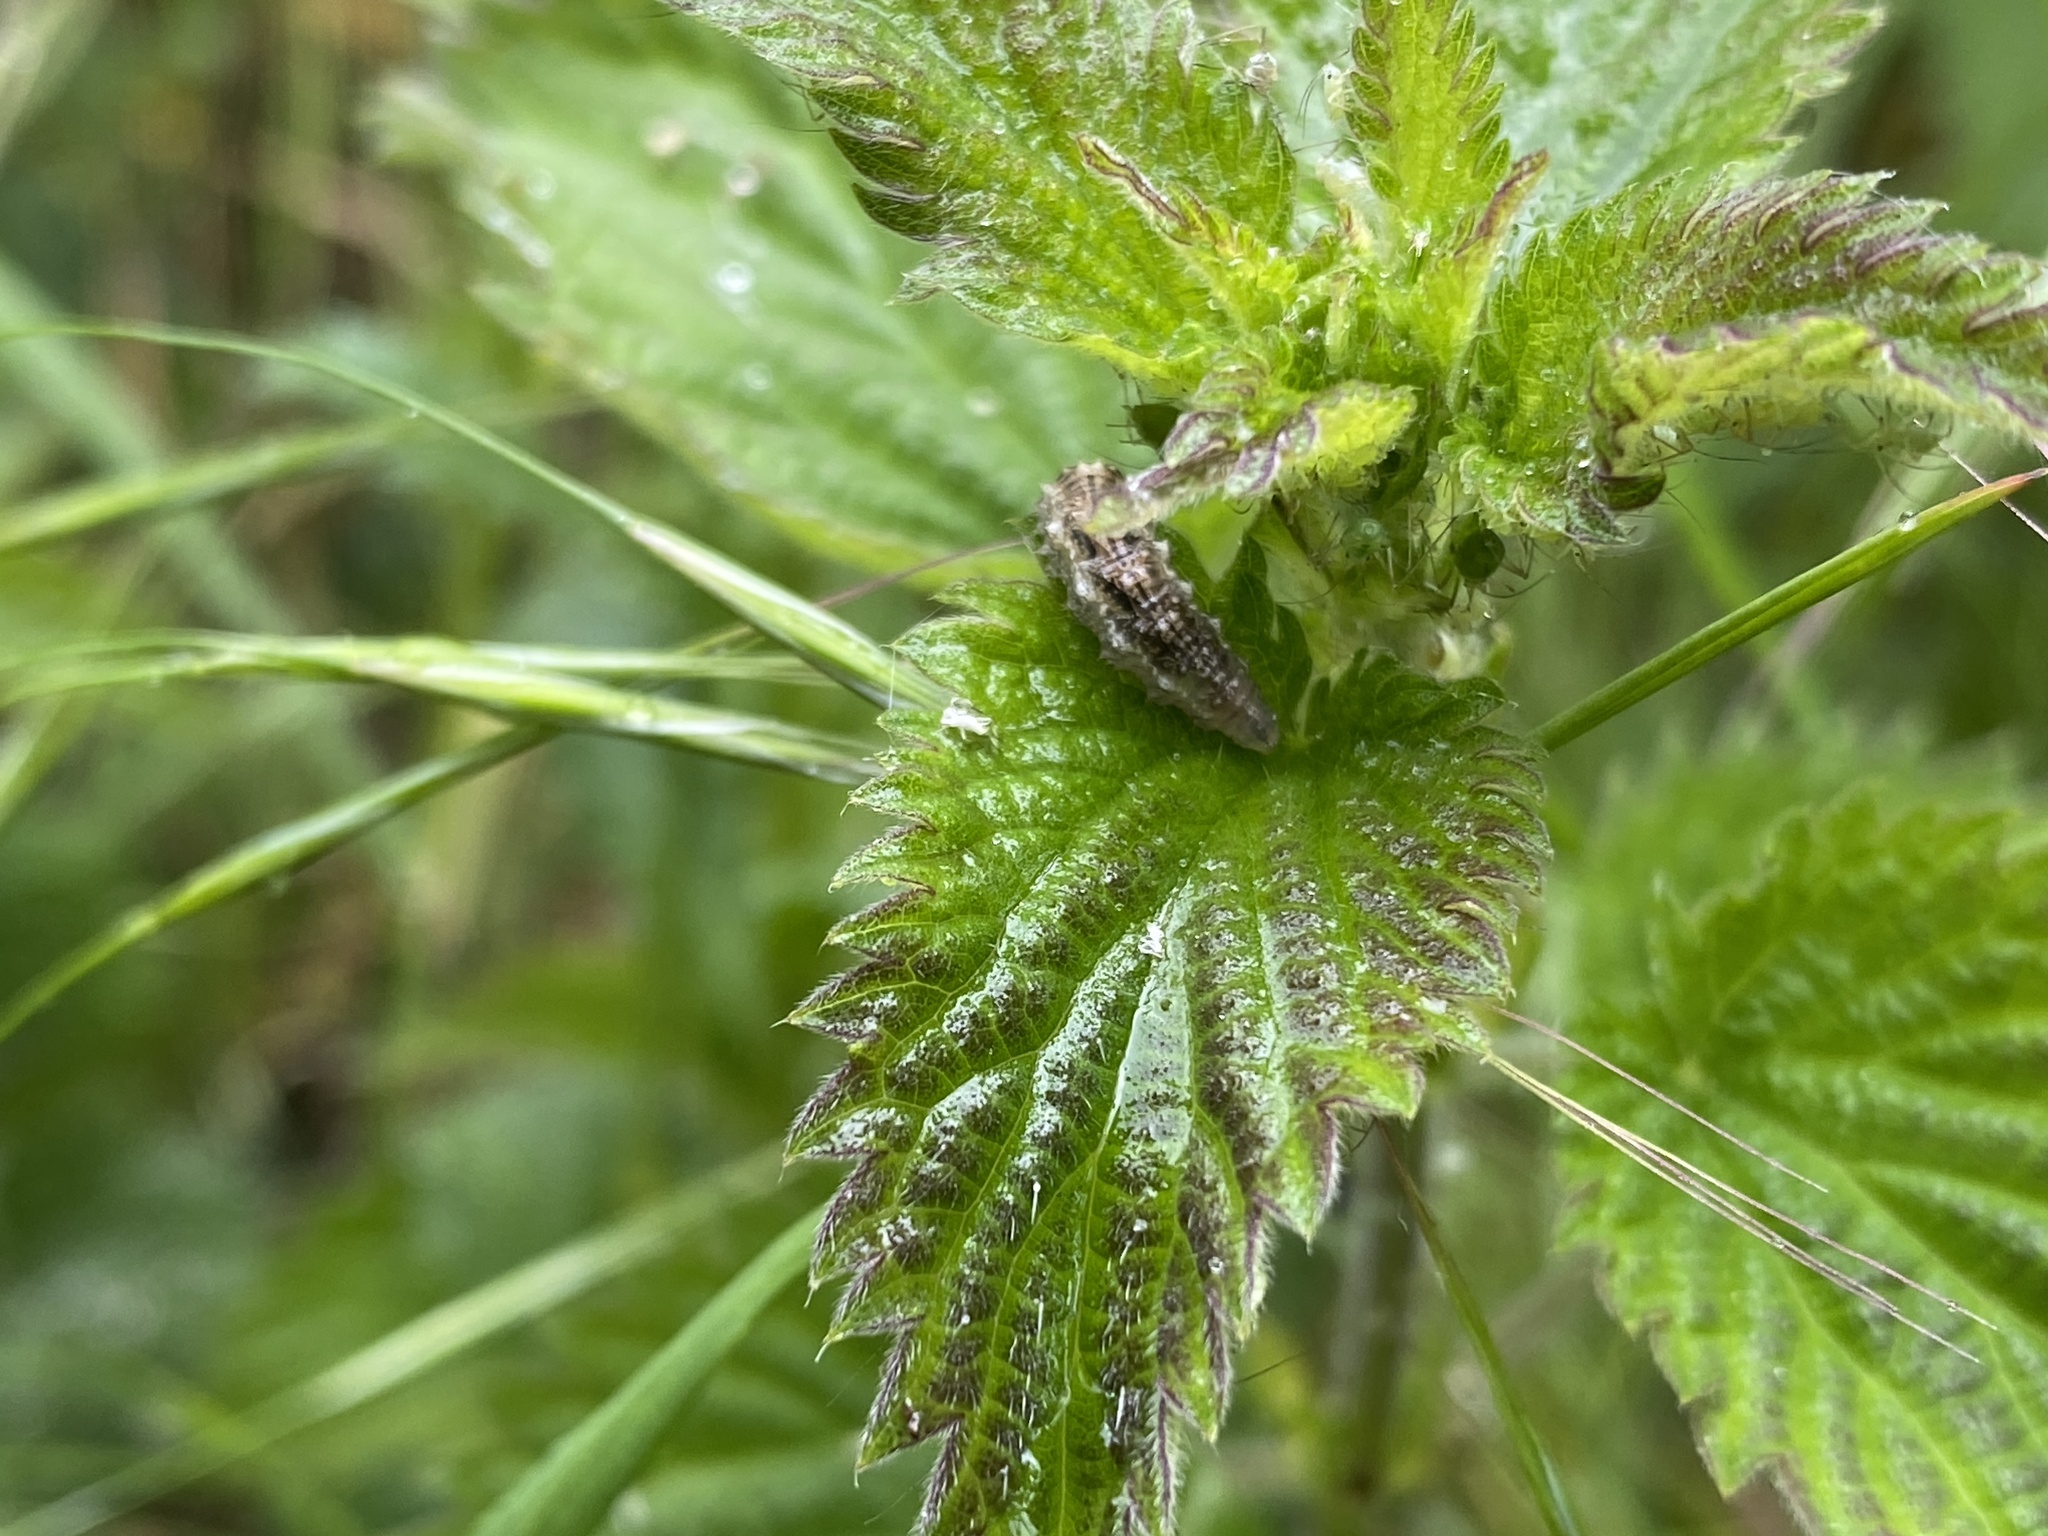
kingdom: Animalia
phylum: Arthropoda
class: Insecta
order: Diptera
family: Syrphidae
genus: Eupeodes
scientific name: Eupeodes
